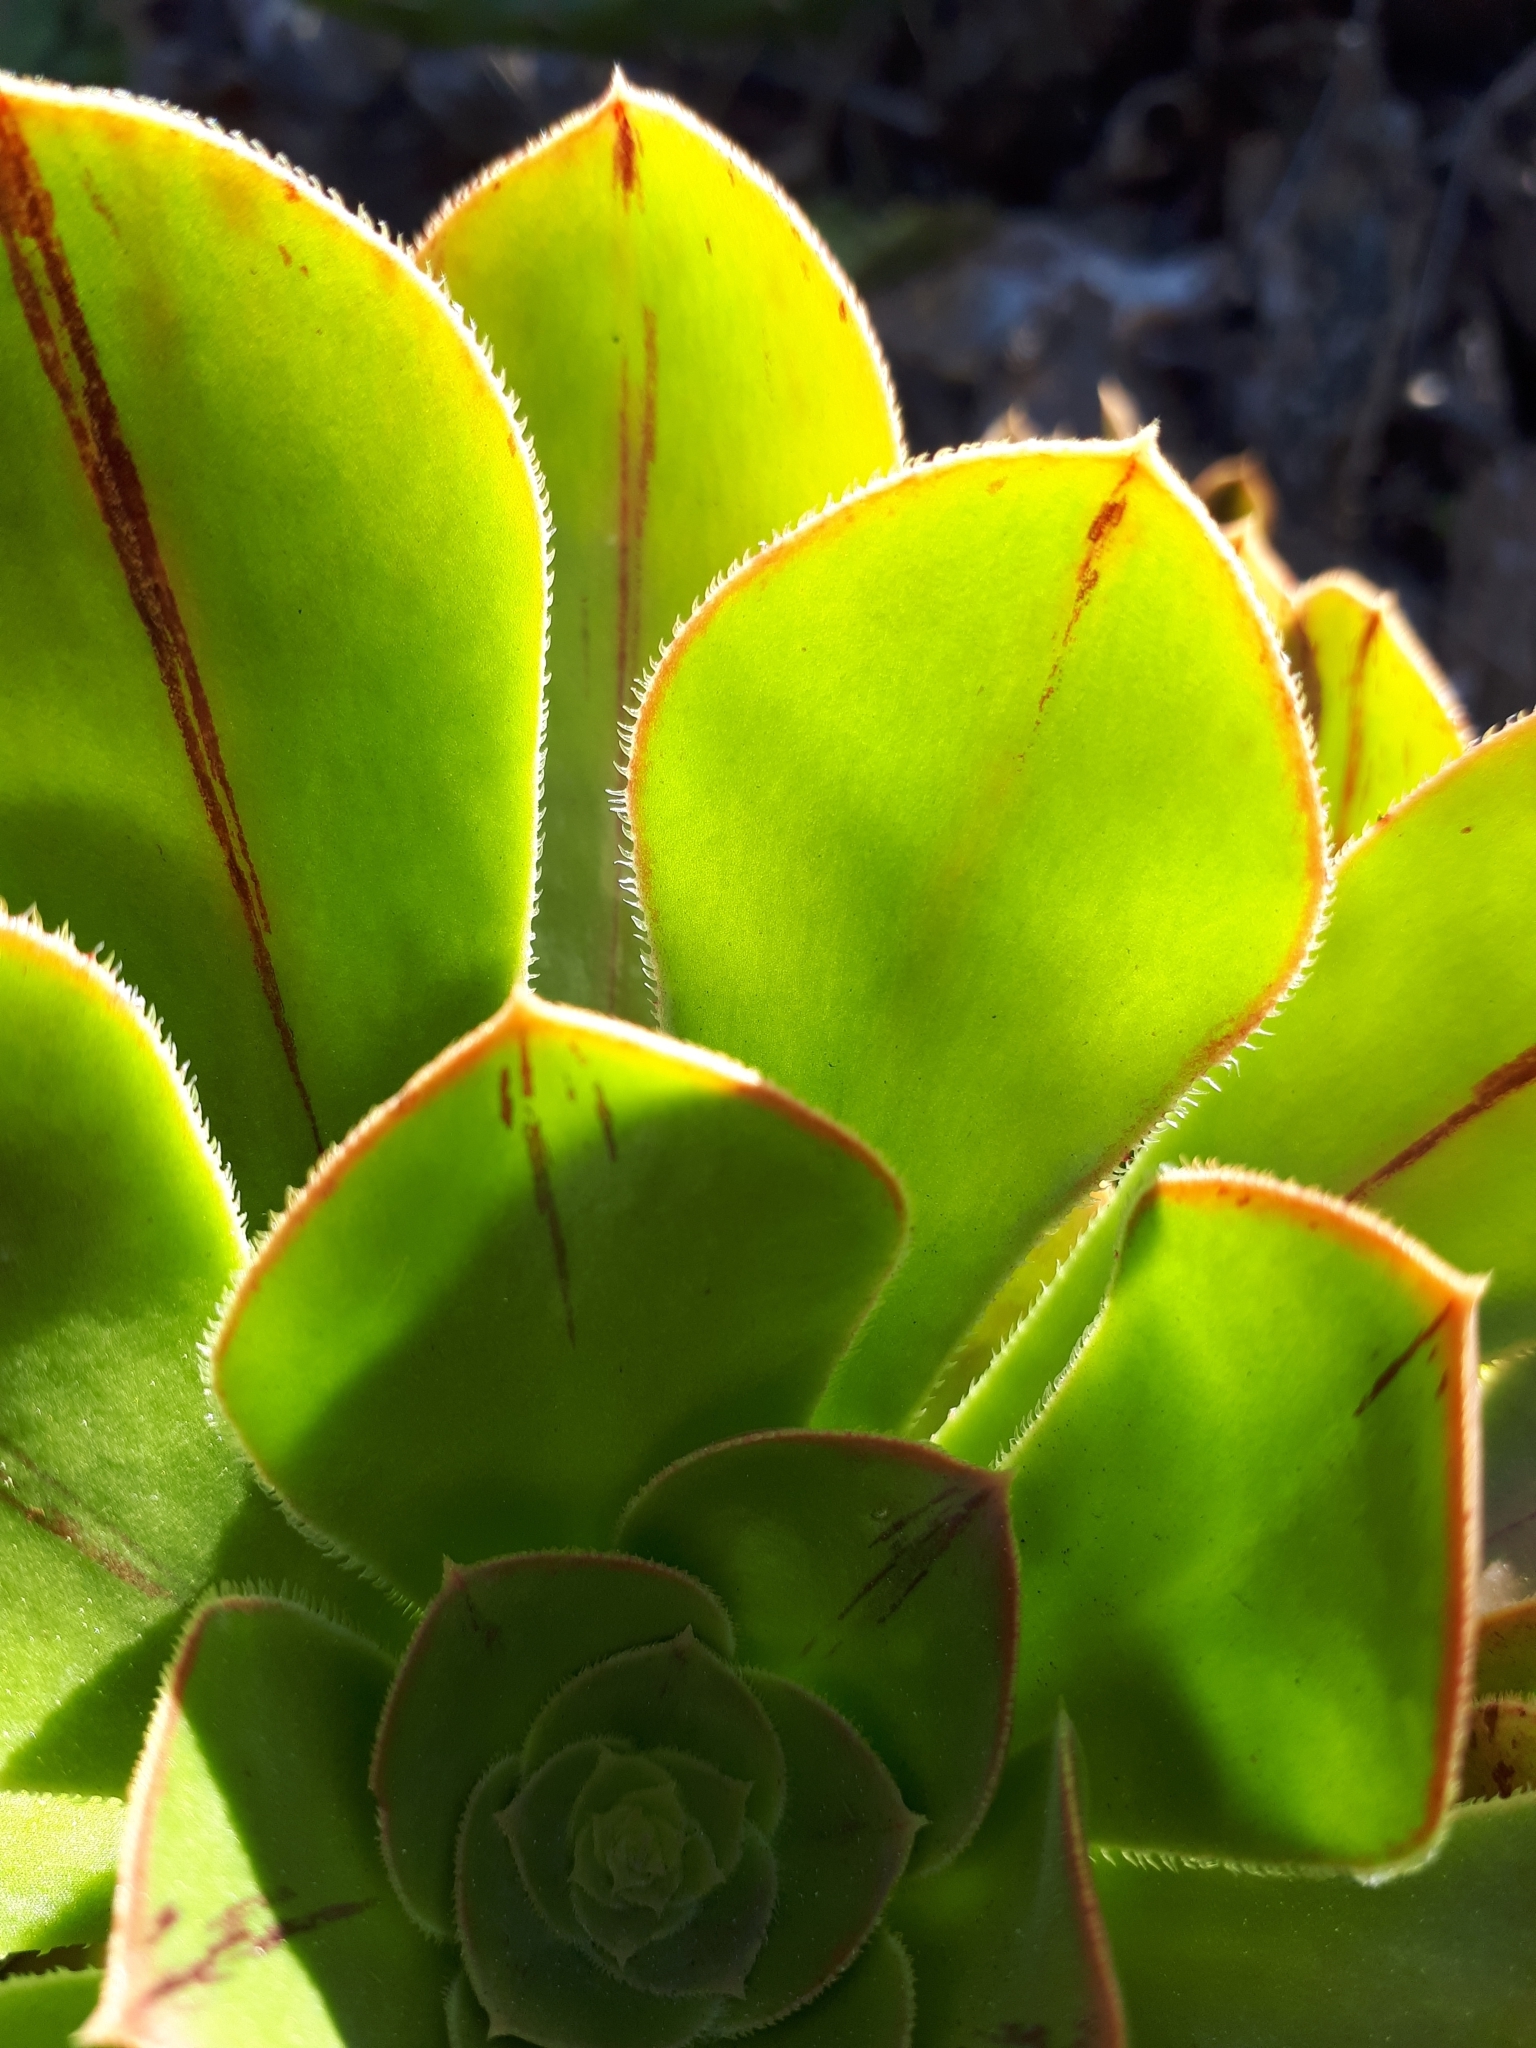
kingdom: Plantae
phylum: Tracheophyta
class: Magnoliopsida
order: Saxifragales
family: Crassulaceae
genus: Aeonium
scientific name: Aeonium arboreum
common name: Tree aeonium
